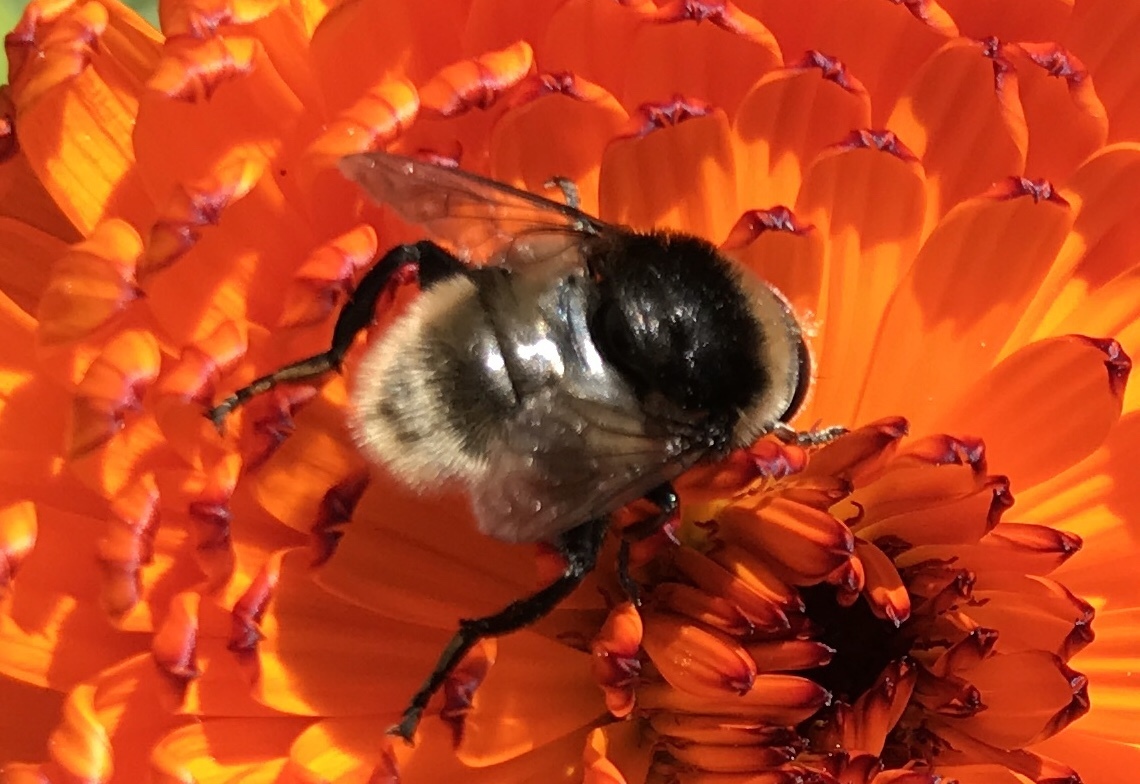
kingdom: Animalia
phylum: Arthropoda
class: Insecta
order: Diptera
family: Syrphidae
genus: Merodon
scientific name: Merodon equestris
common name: Greater bulb-fly
